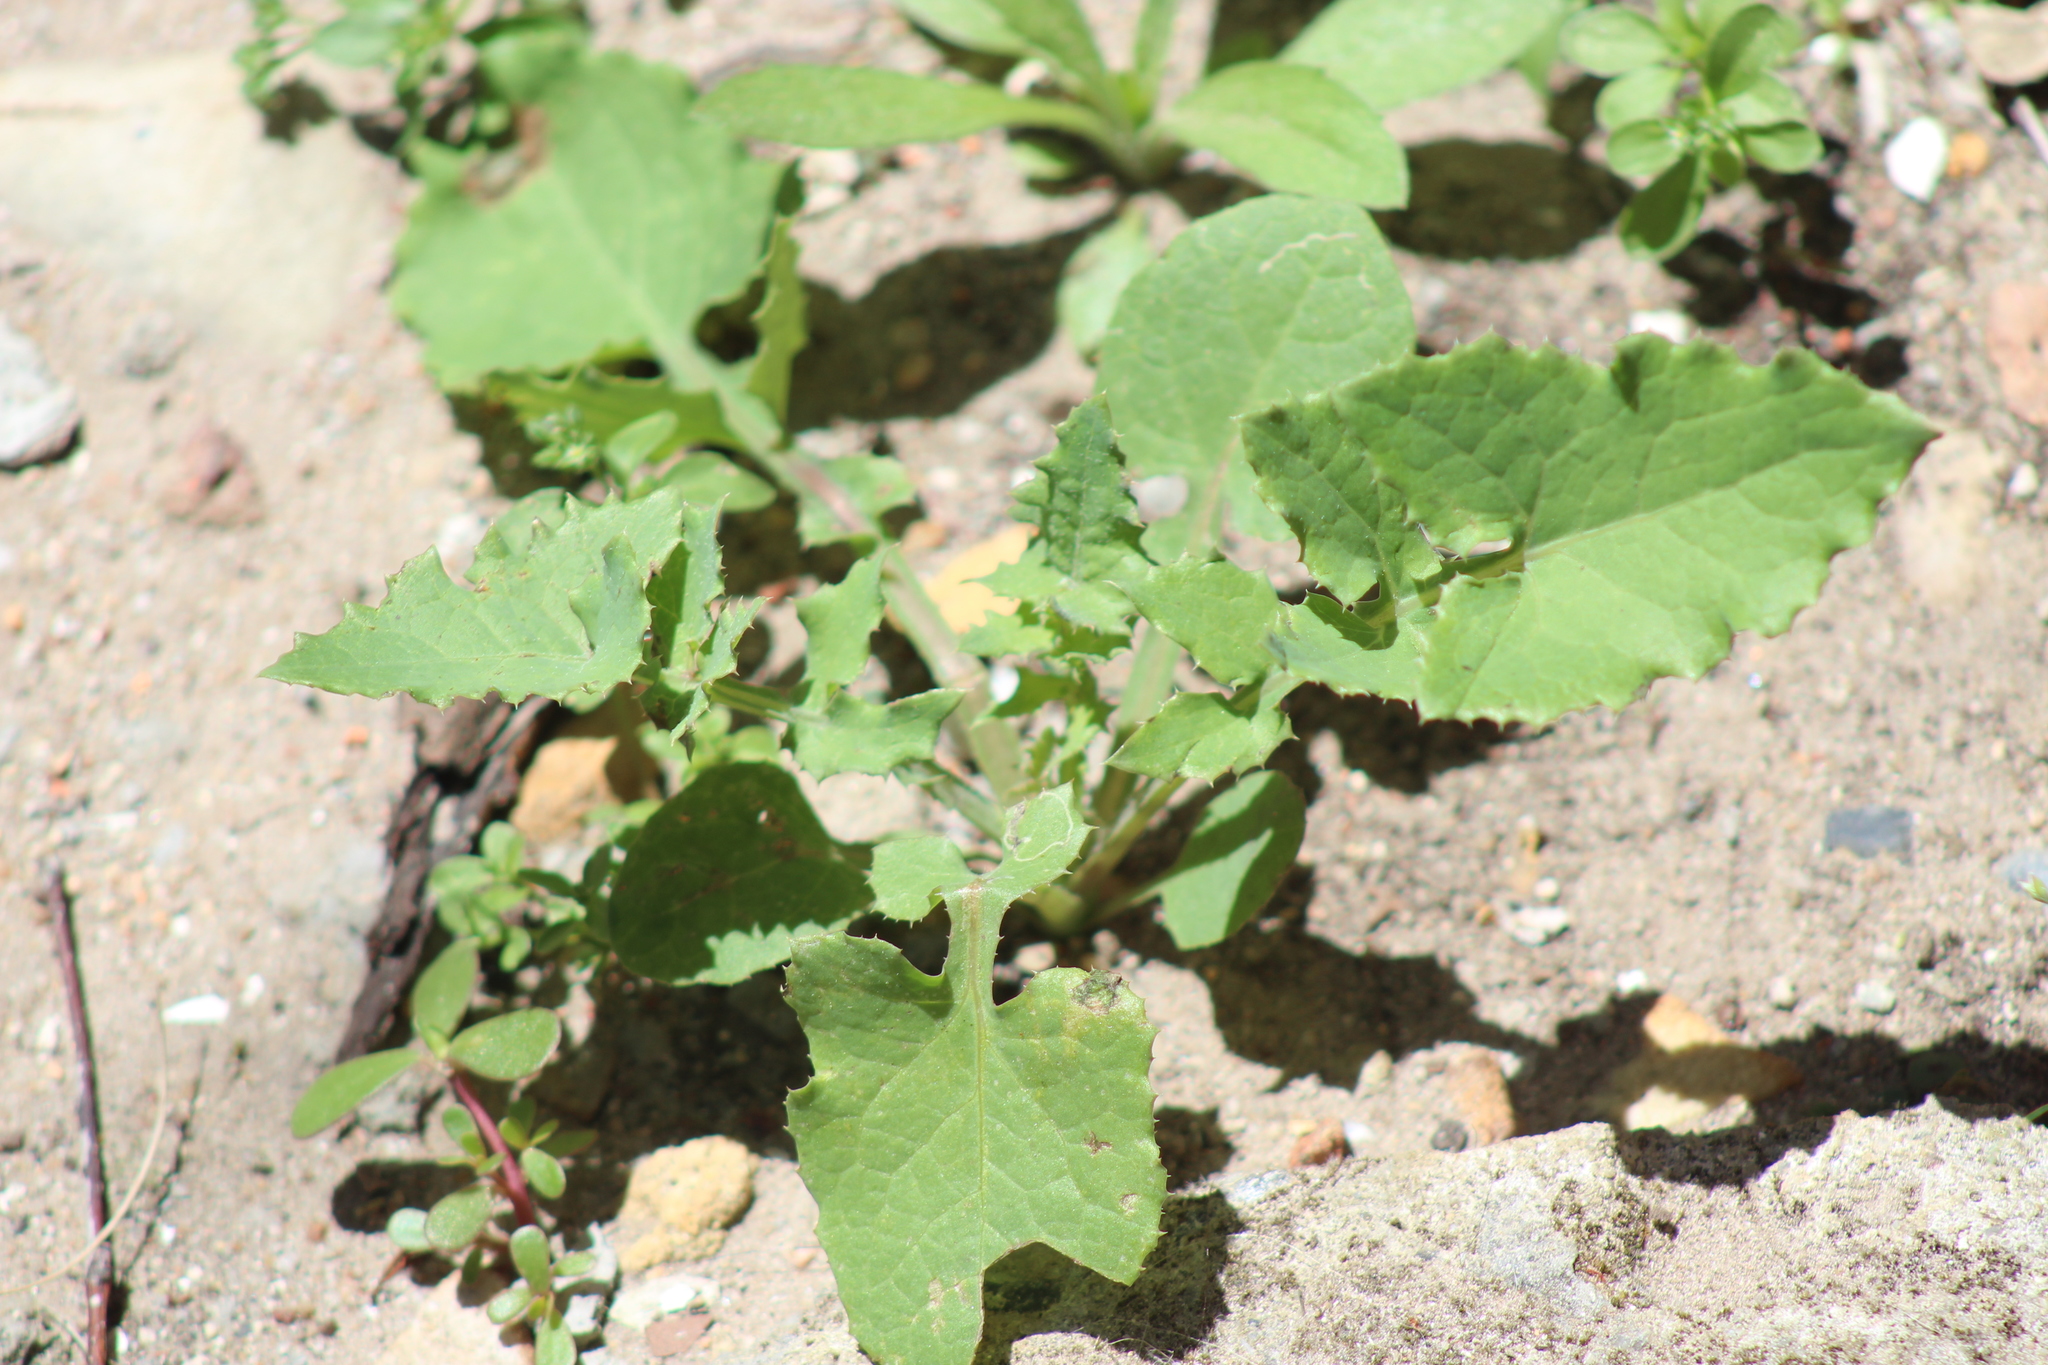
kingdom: Plantae
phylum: Tracheophyta
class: Magnoliopsida
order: Asterales
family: Asteraceae
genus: Sonchus
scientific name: Sonchus oleraceus
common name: Common sowthistle
